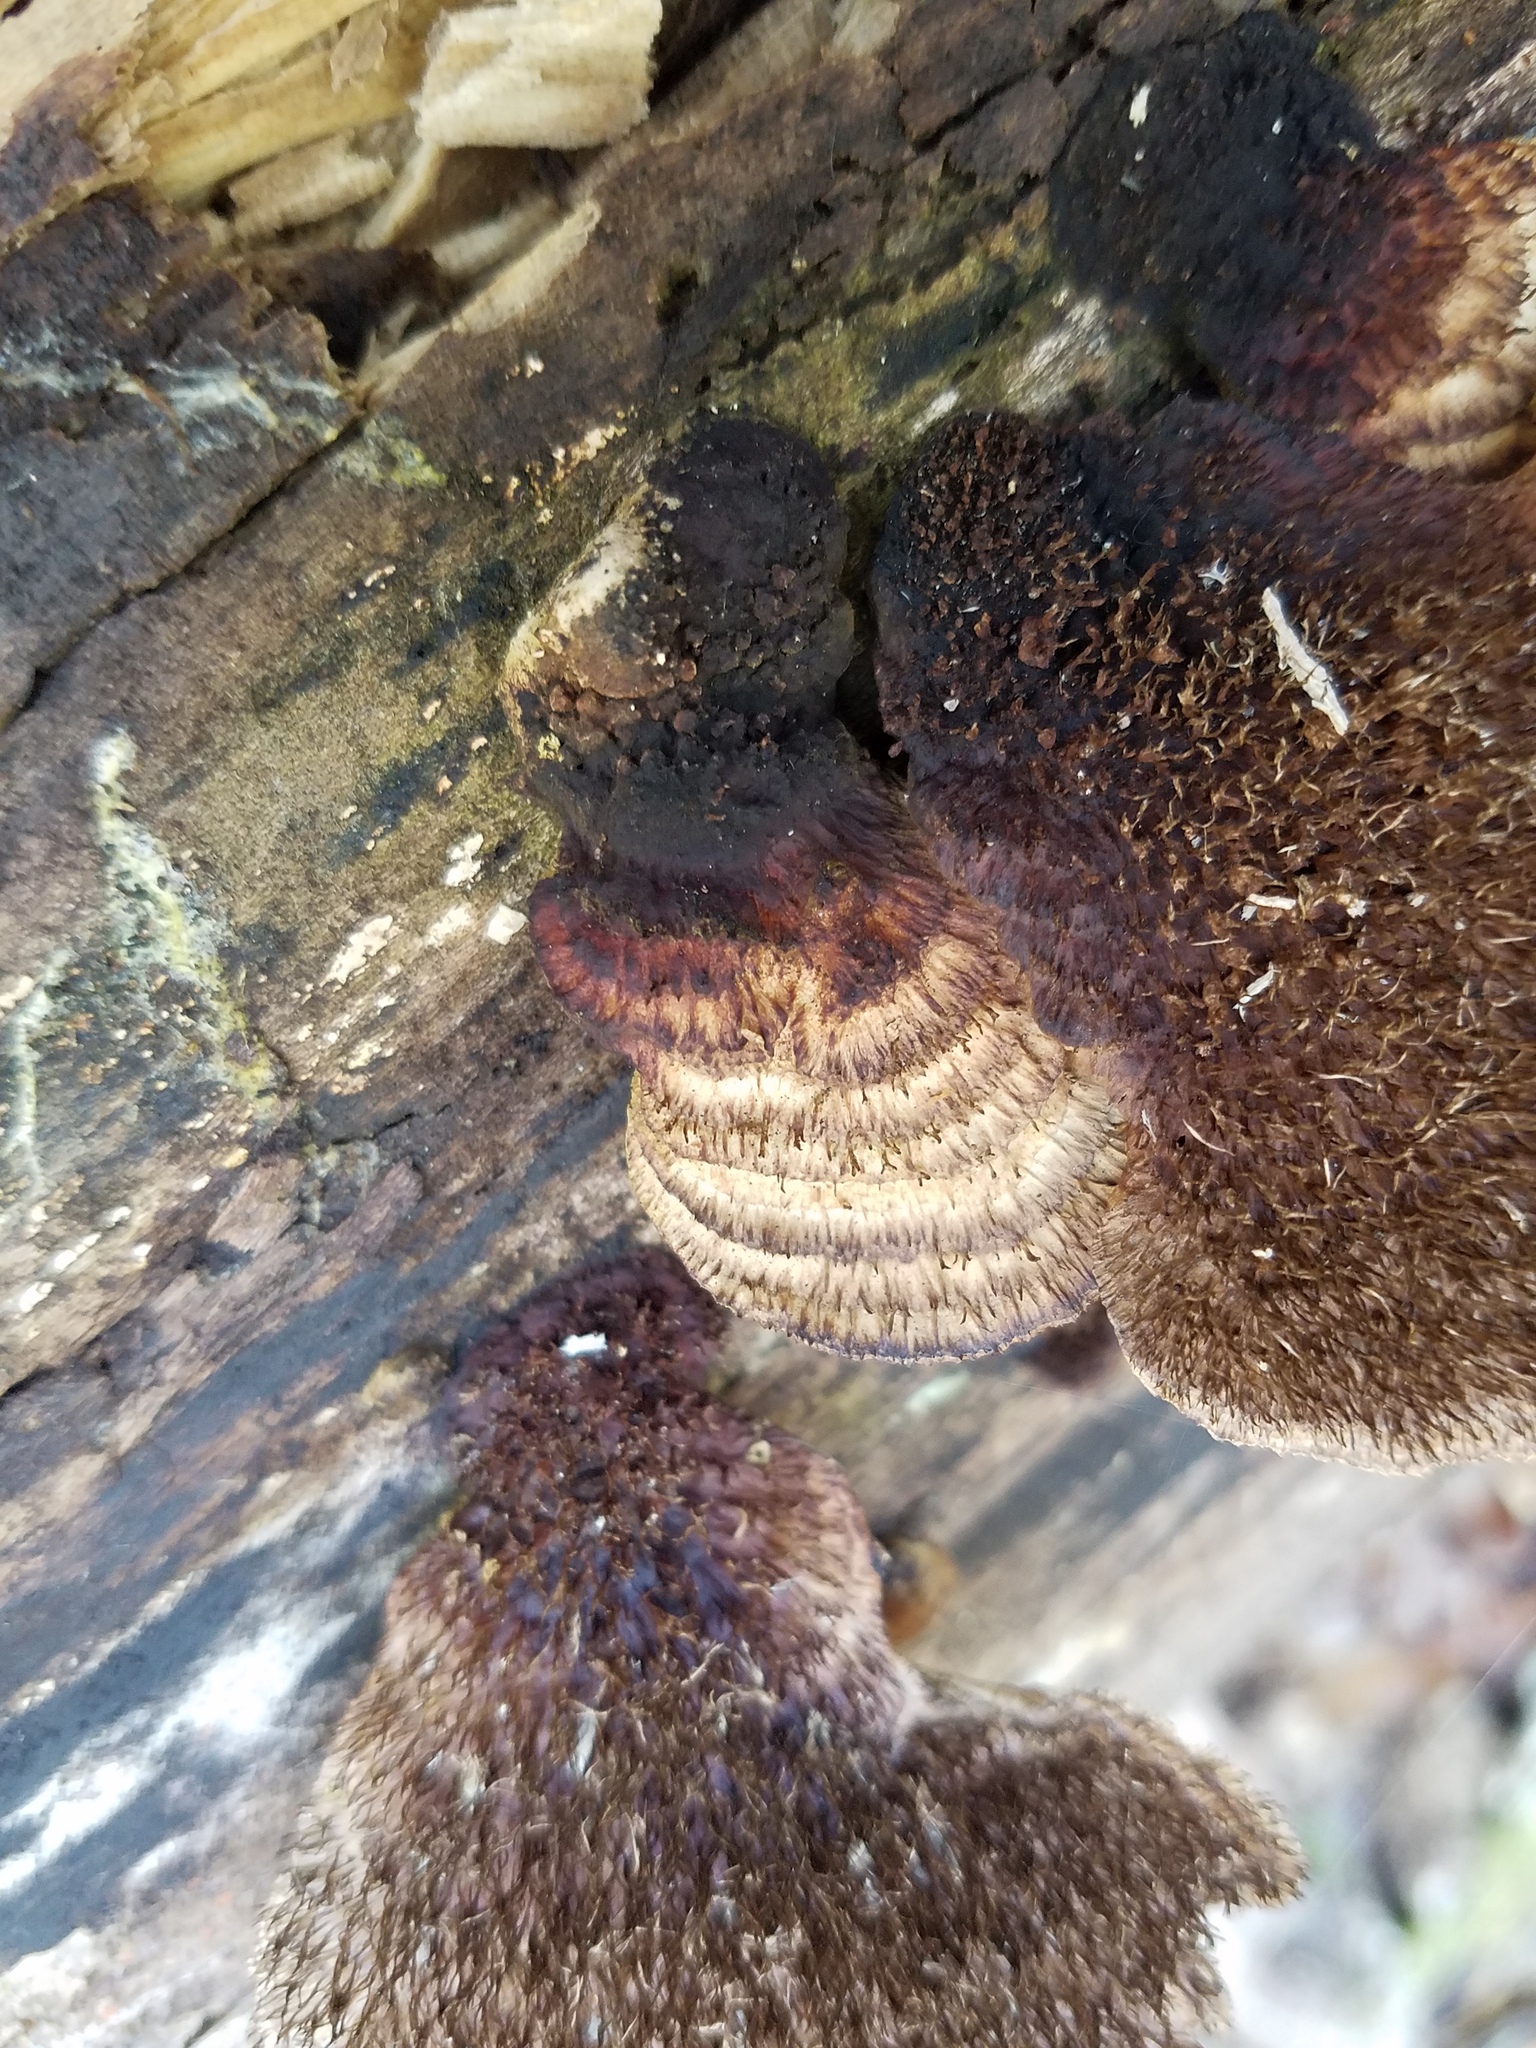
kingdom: Fungi
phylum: Basidiomycota
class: Agaricomycetes
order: Polyporales
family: Cerrenaceae
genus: Cerrena
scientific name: Cerrena hydnoides
